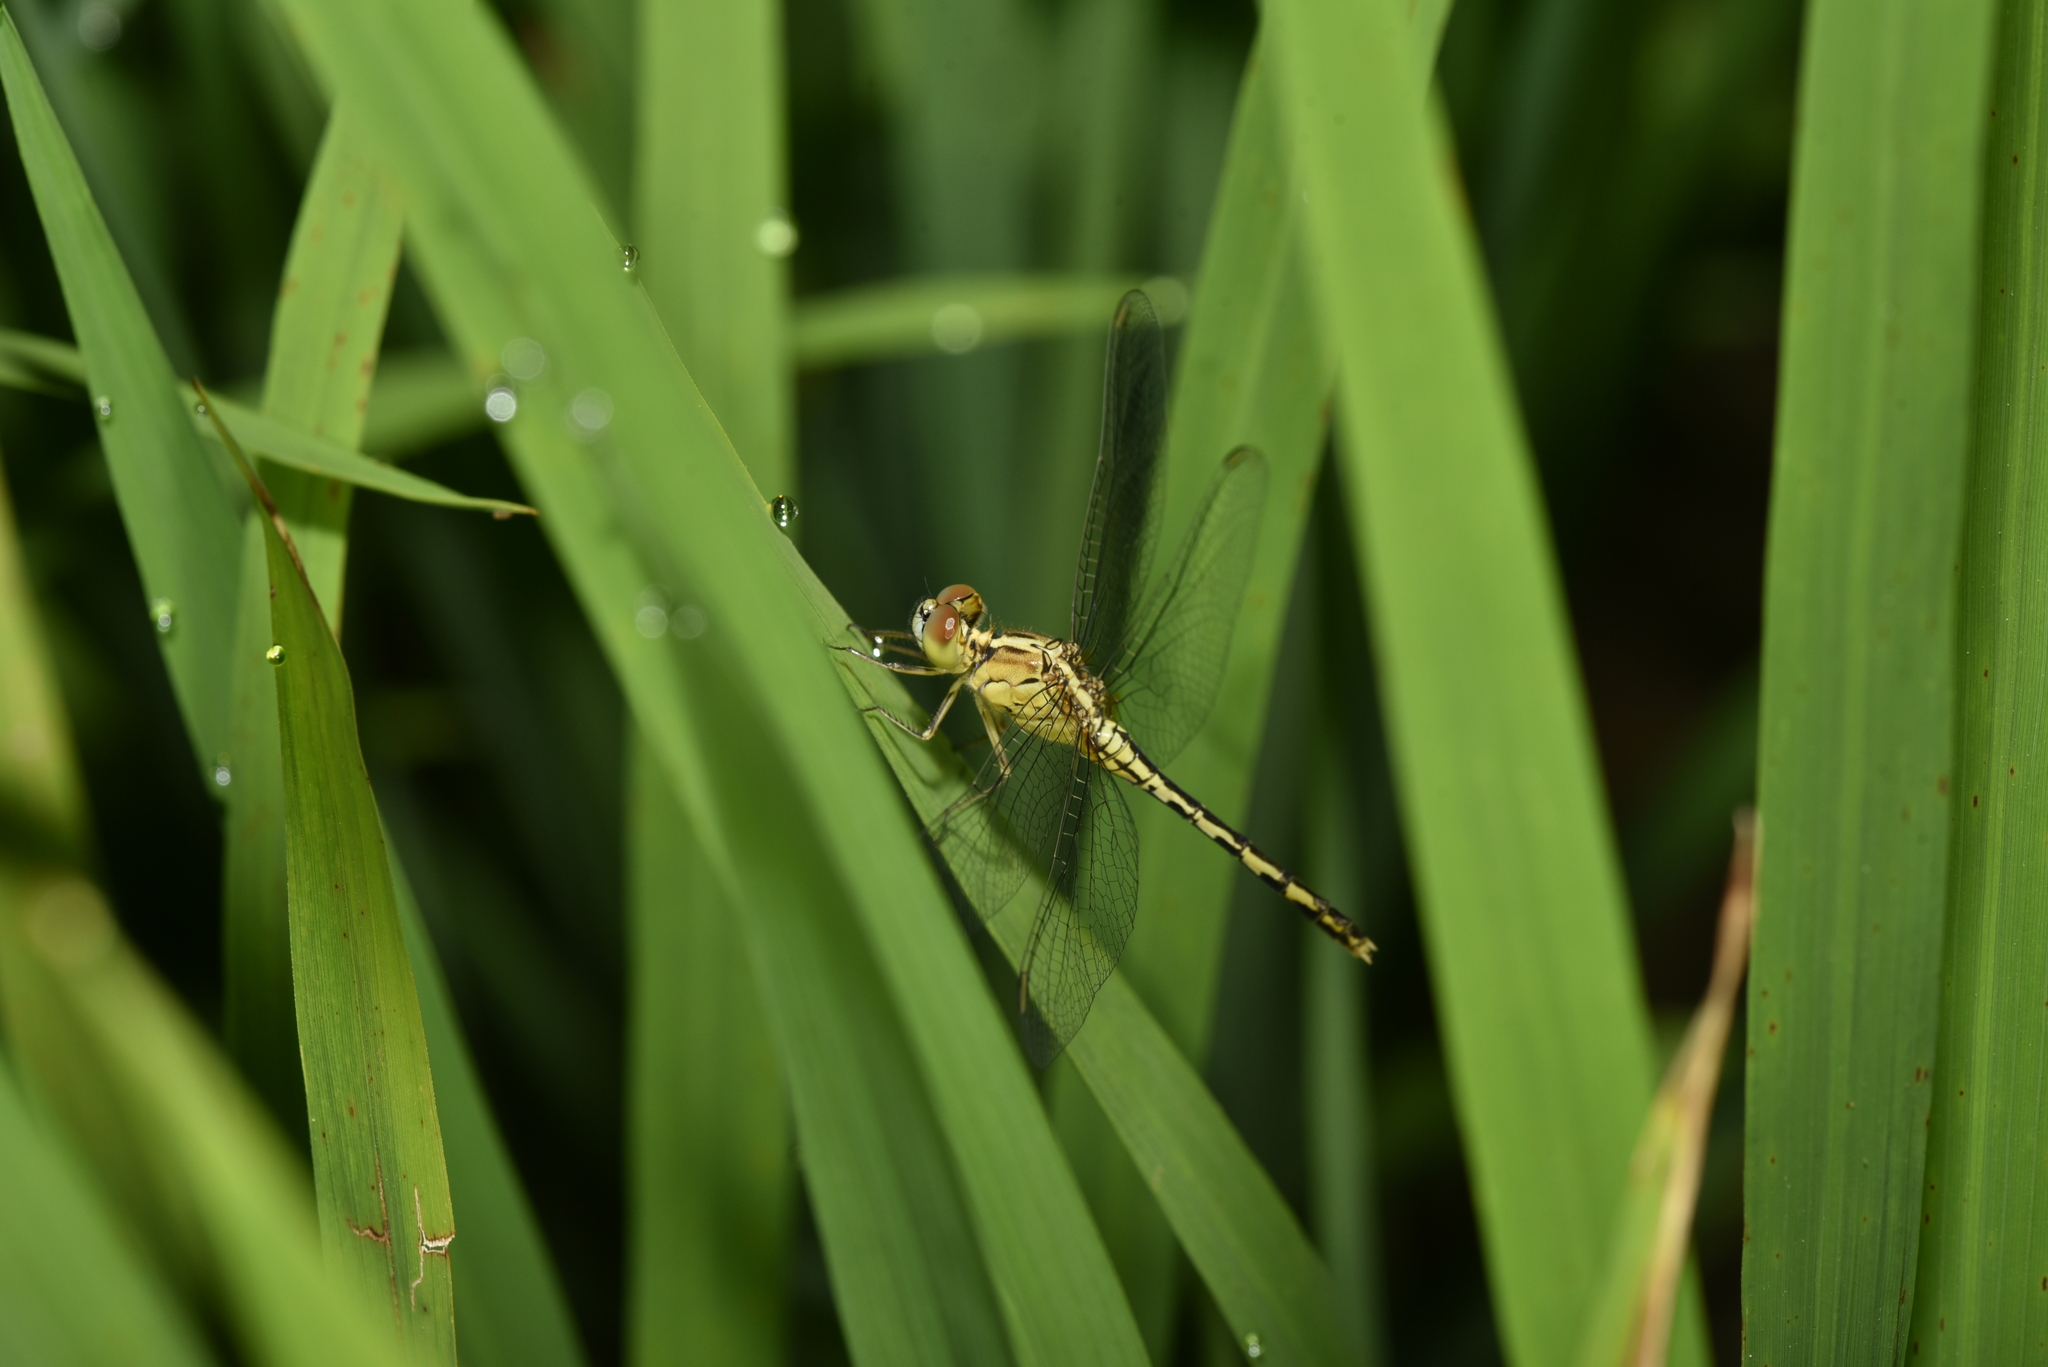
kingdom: Animalia
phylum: Arthropoda
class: Insecta
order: Odonata
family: Libellulidae
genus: Diplacodes
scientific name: Diplacodes trivialis
